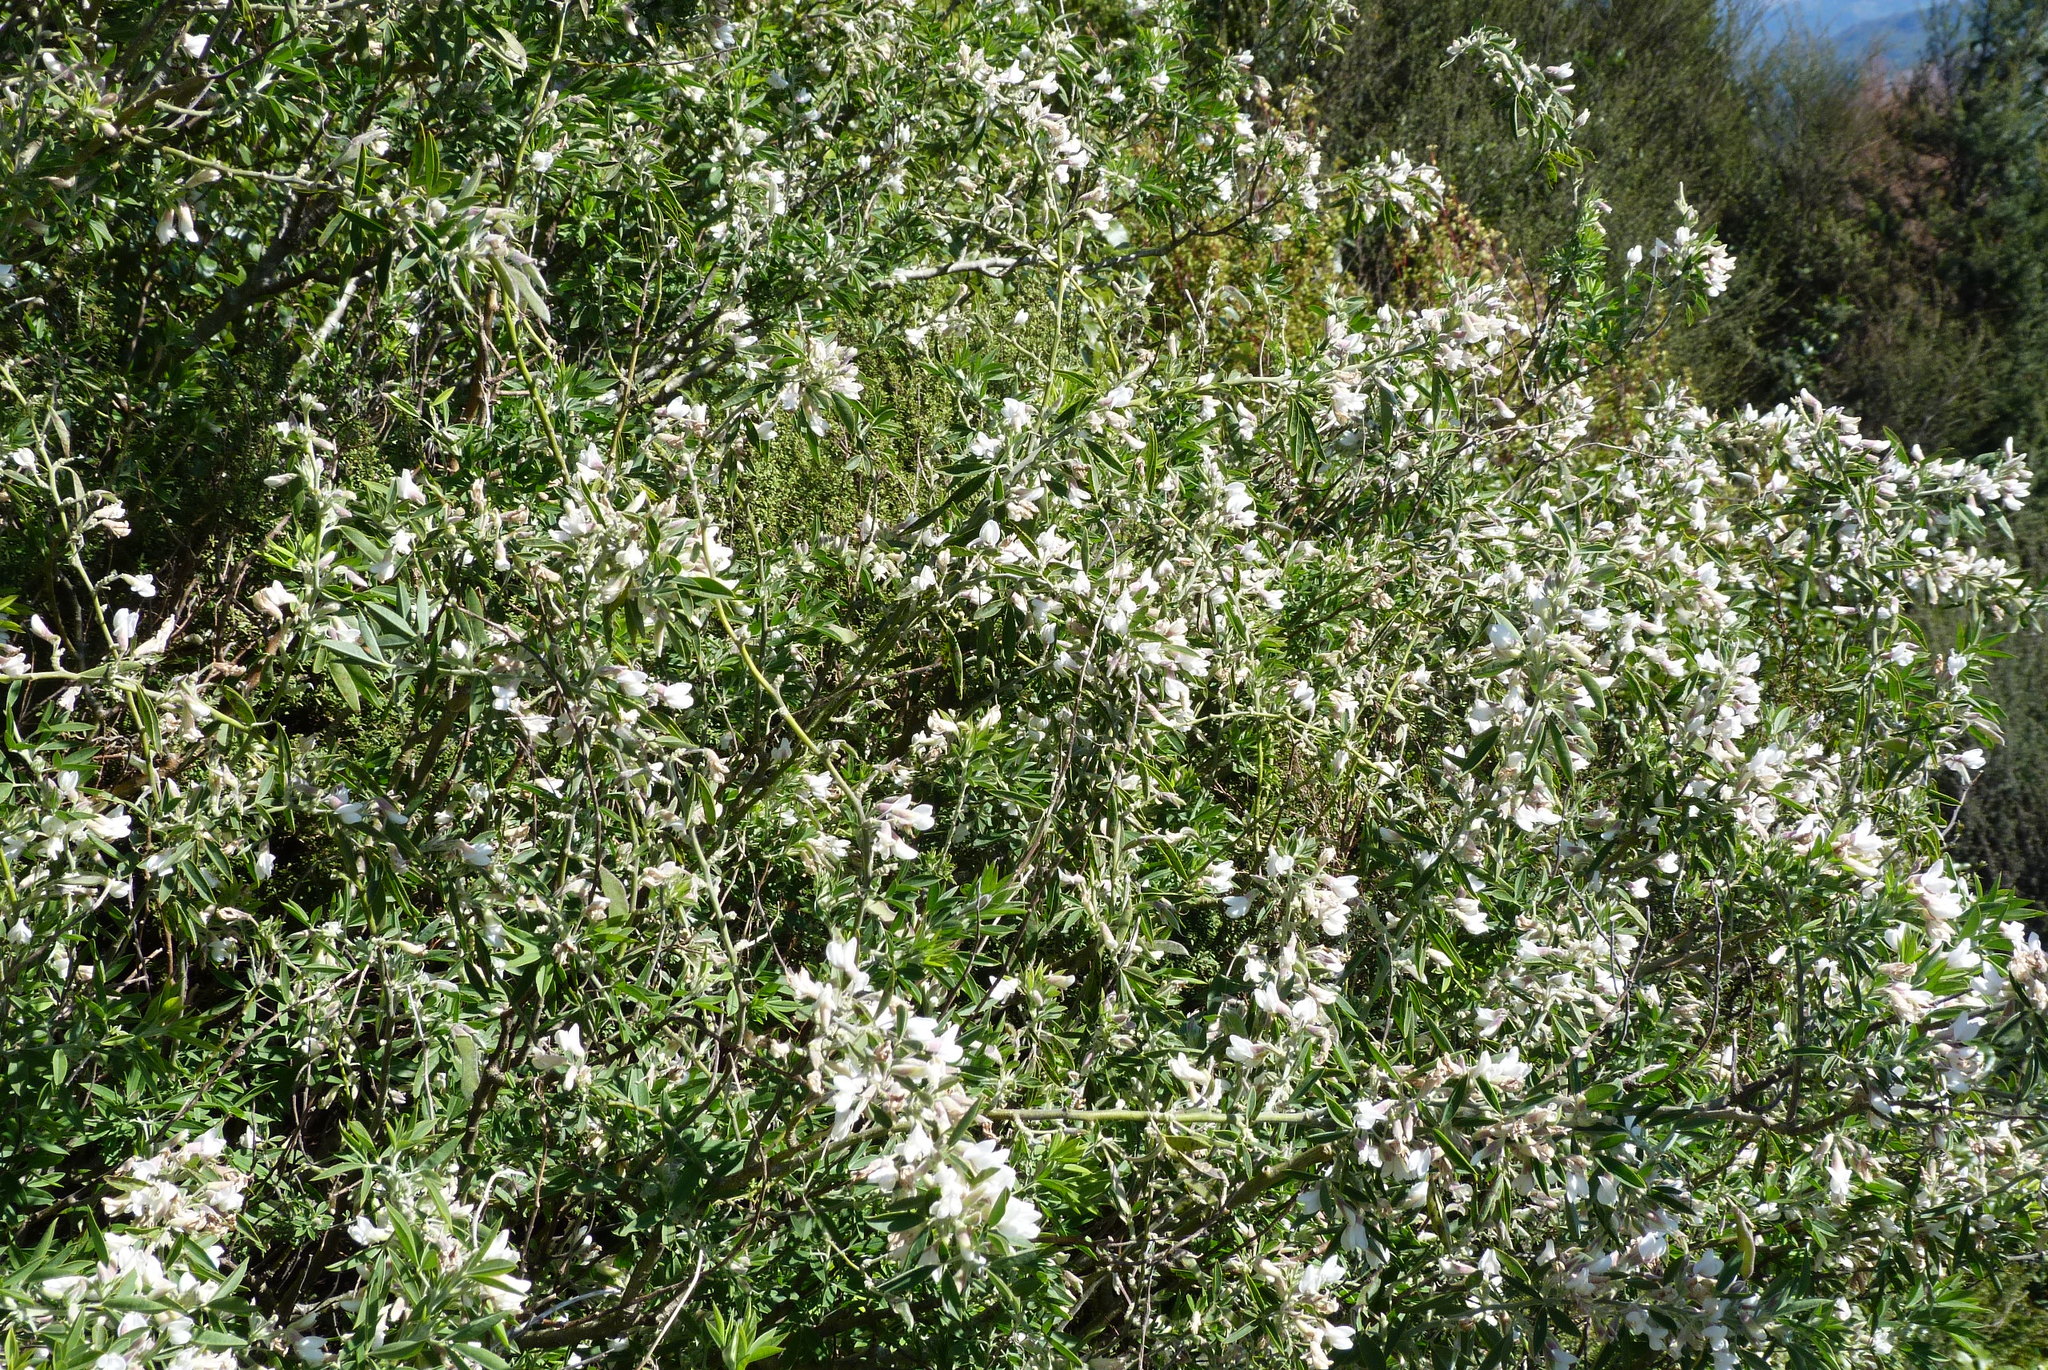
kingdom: Plantae
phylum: Tracheophyta
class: Magnoliopsida
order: Fabales
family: Fabaceae
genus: Chamaecytisus
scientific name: Chamaecytisus prolifer
